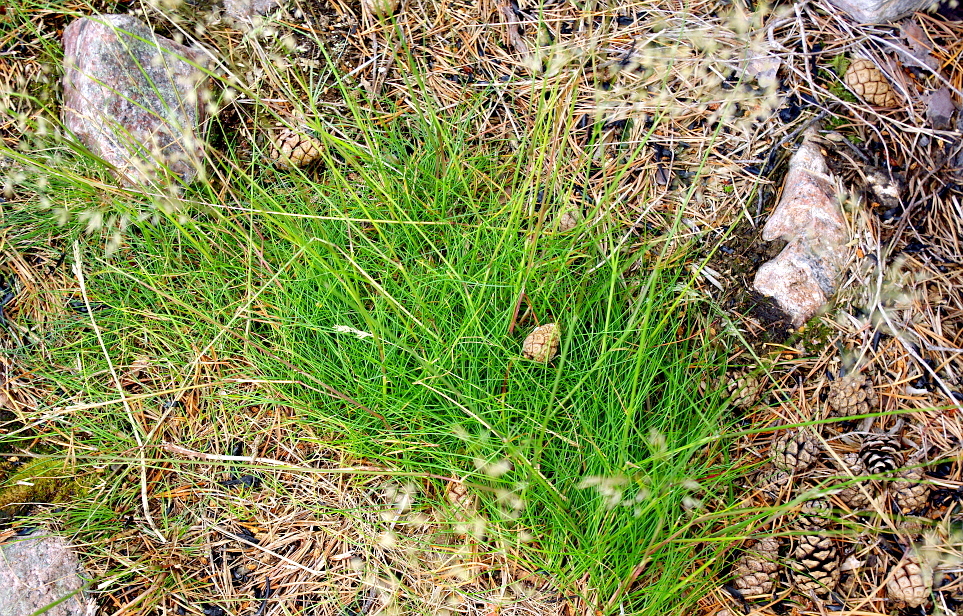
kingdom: Plantae
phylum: Tracheophyta
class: Liliopsida
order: Poales
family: Poaceae
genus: Avenella
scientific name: Avenella flexuosa
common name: Wavy hairgrass
